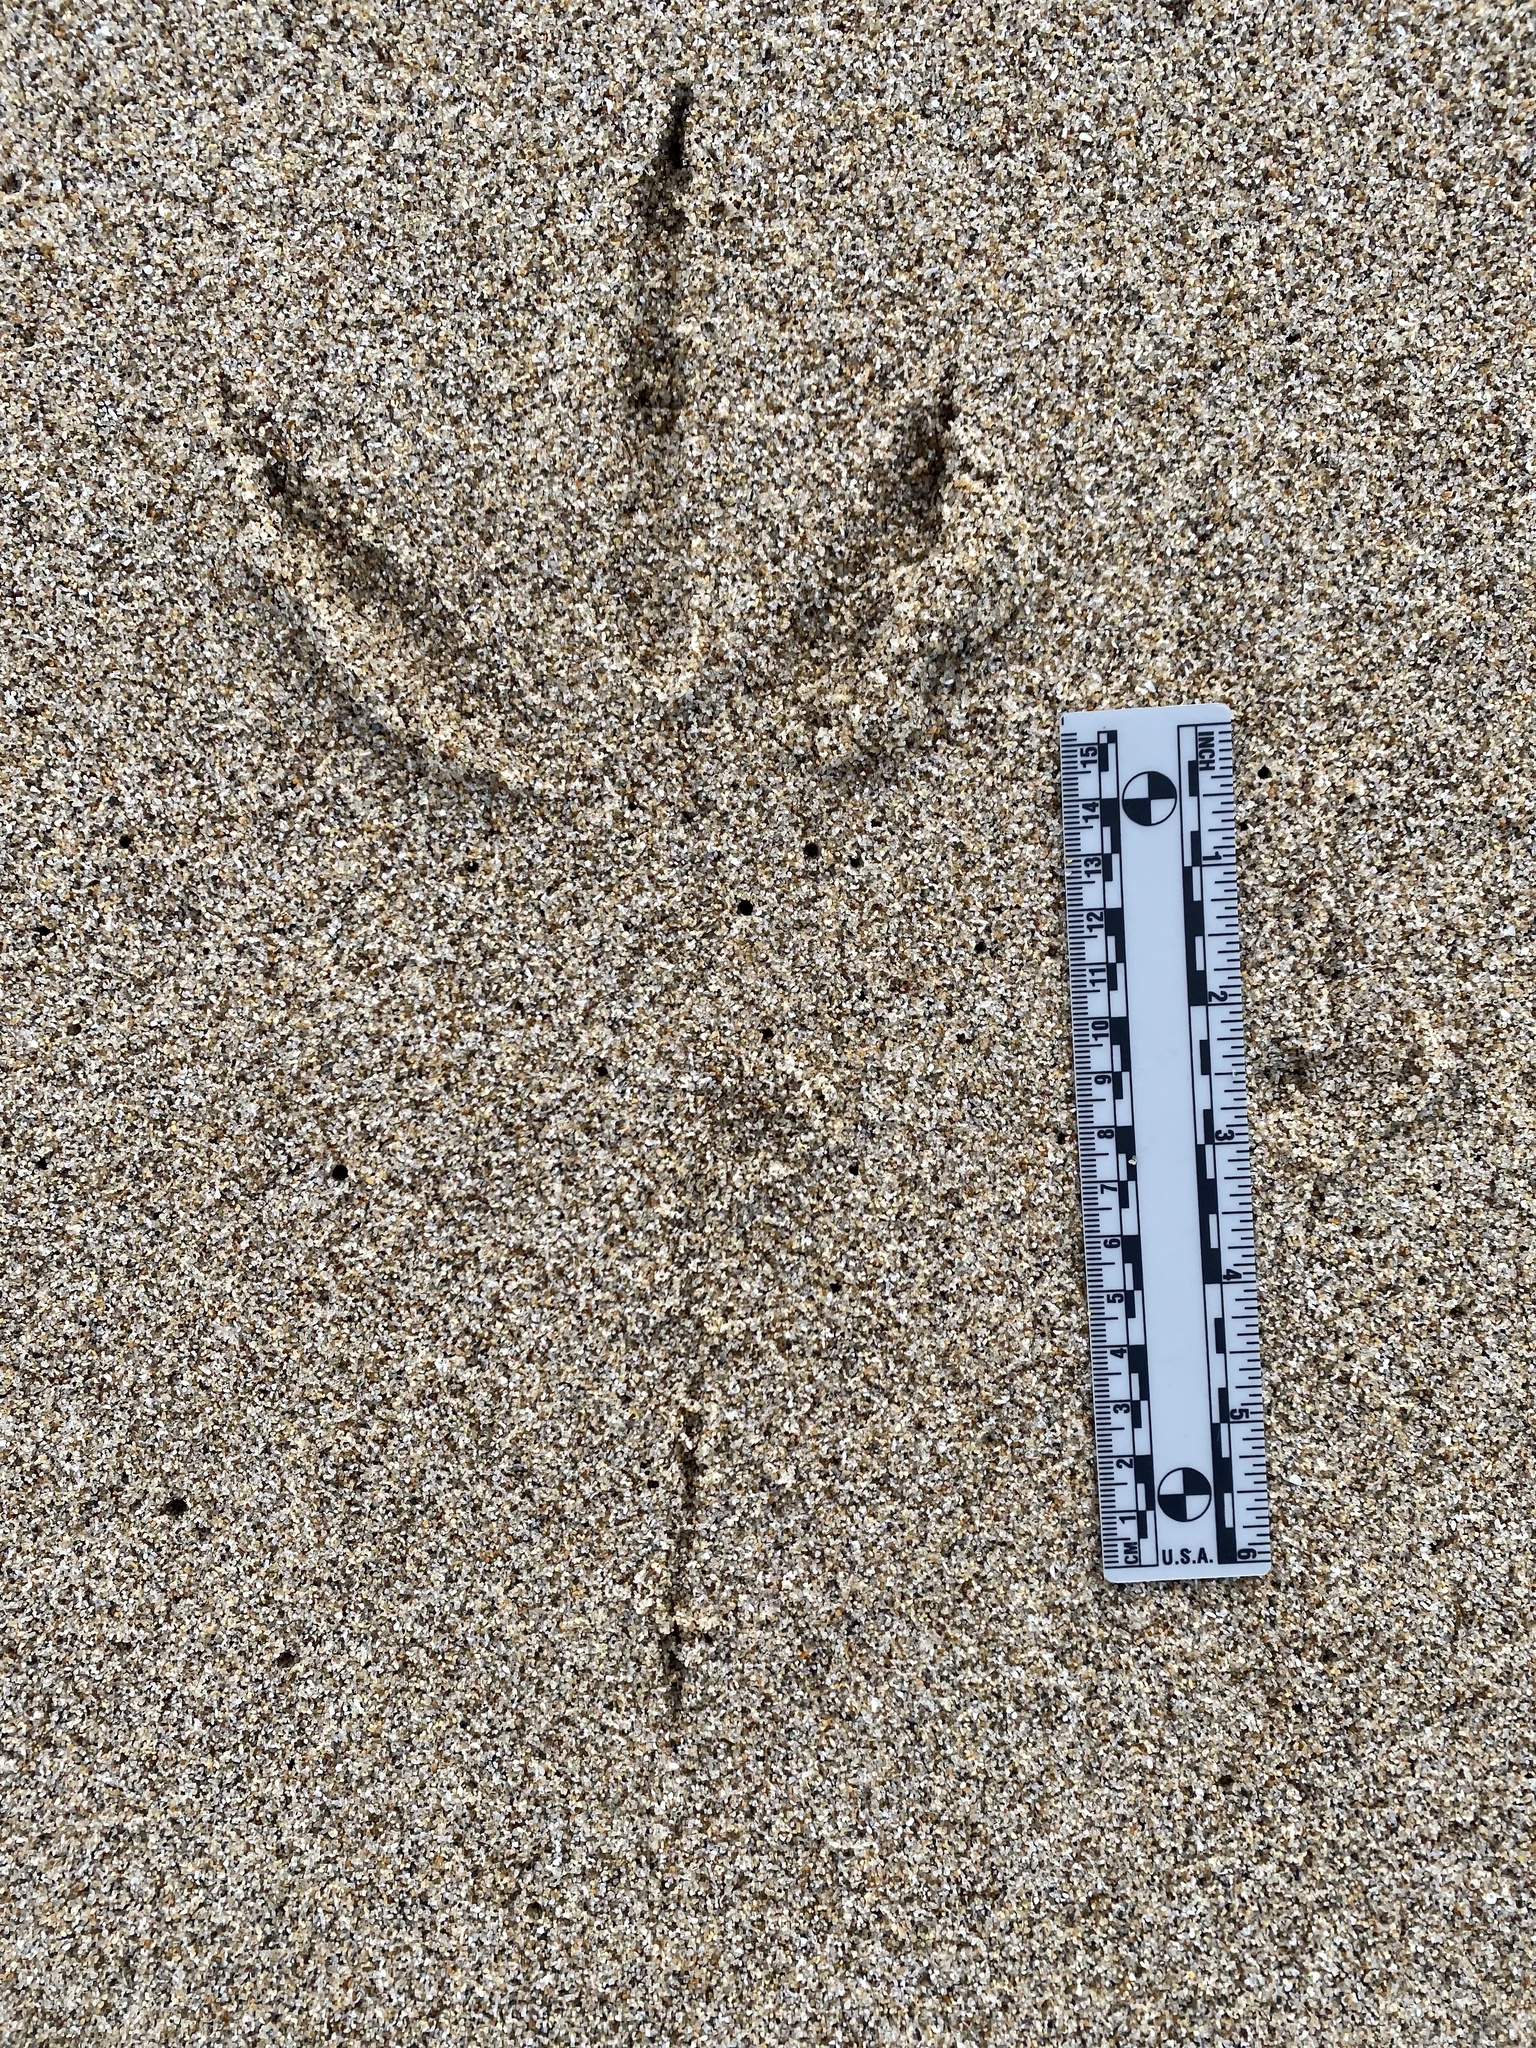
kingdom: Animalia
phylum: Chordata
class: Aves
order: Pelecaniformes
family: Ardeidae
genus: Ardea
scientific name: Ardea herodias
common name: Great blue heron
